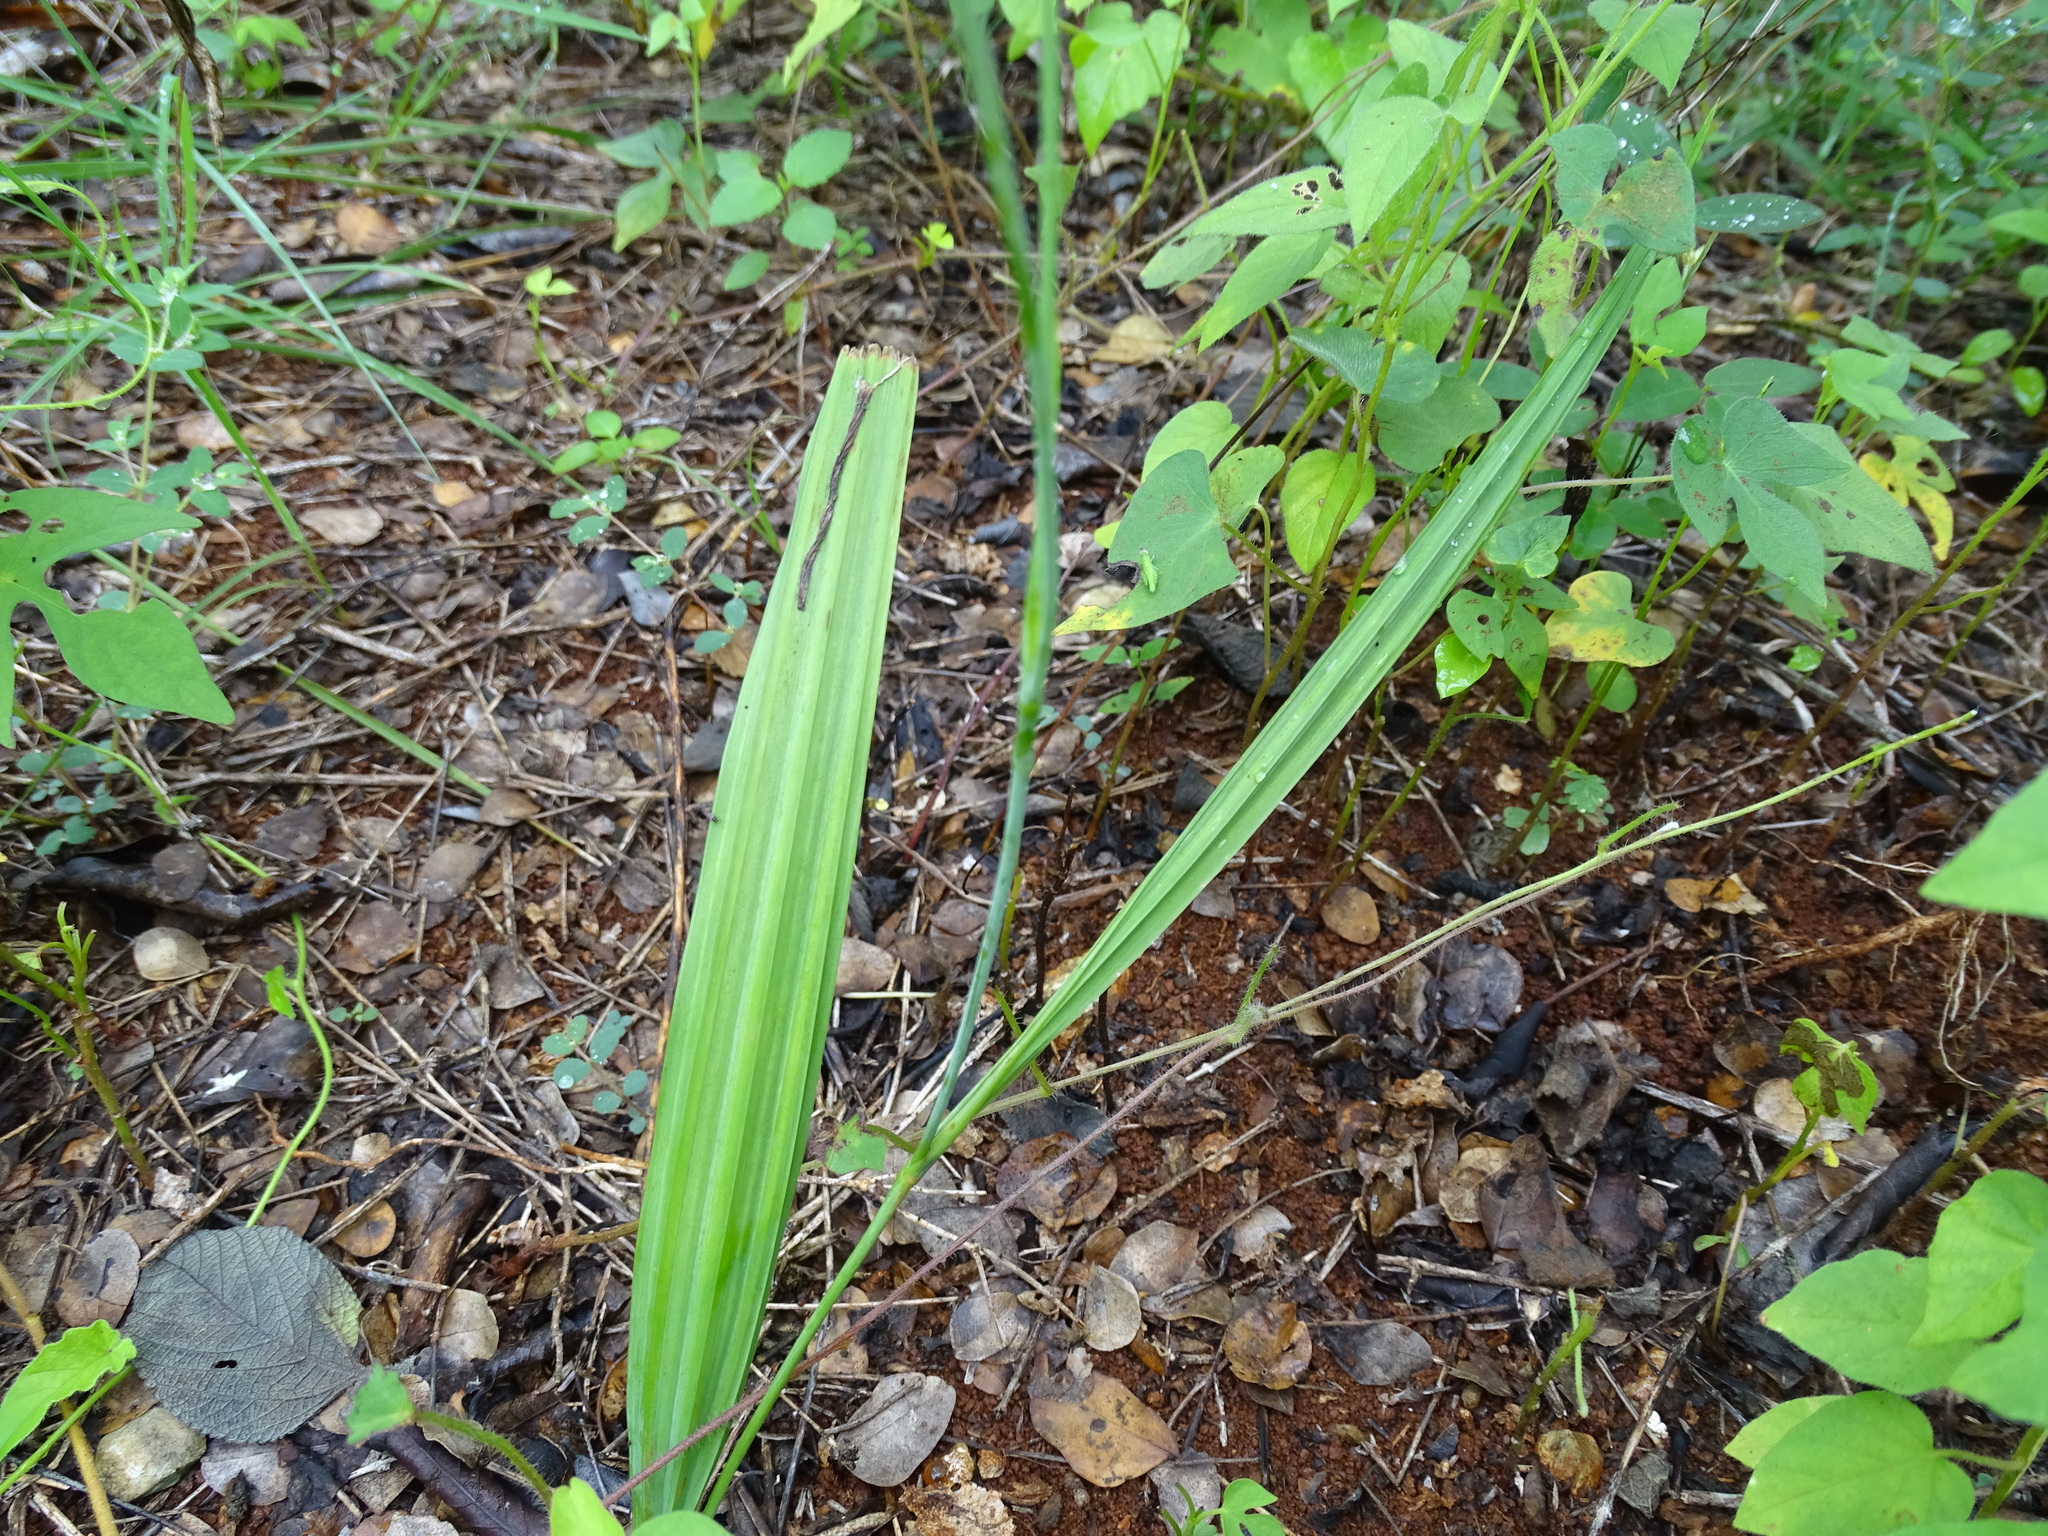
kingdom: Plantae
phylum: Tracheophyta
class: Liliopsida
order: Asparagales
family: Iridaceae
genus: Alophia
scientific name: Alophia silvestris
